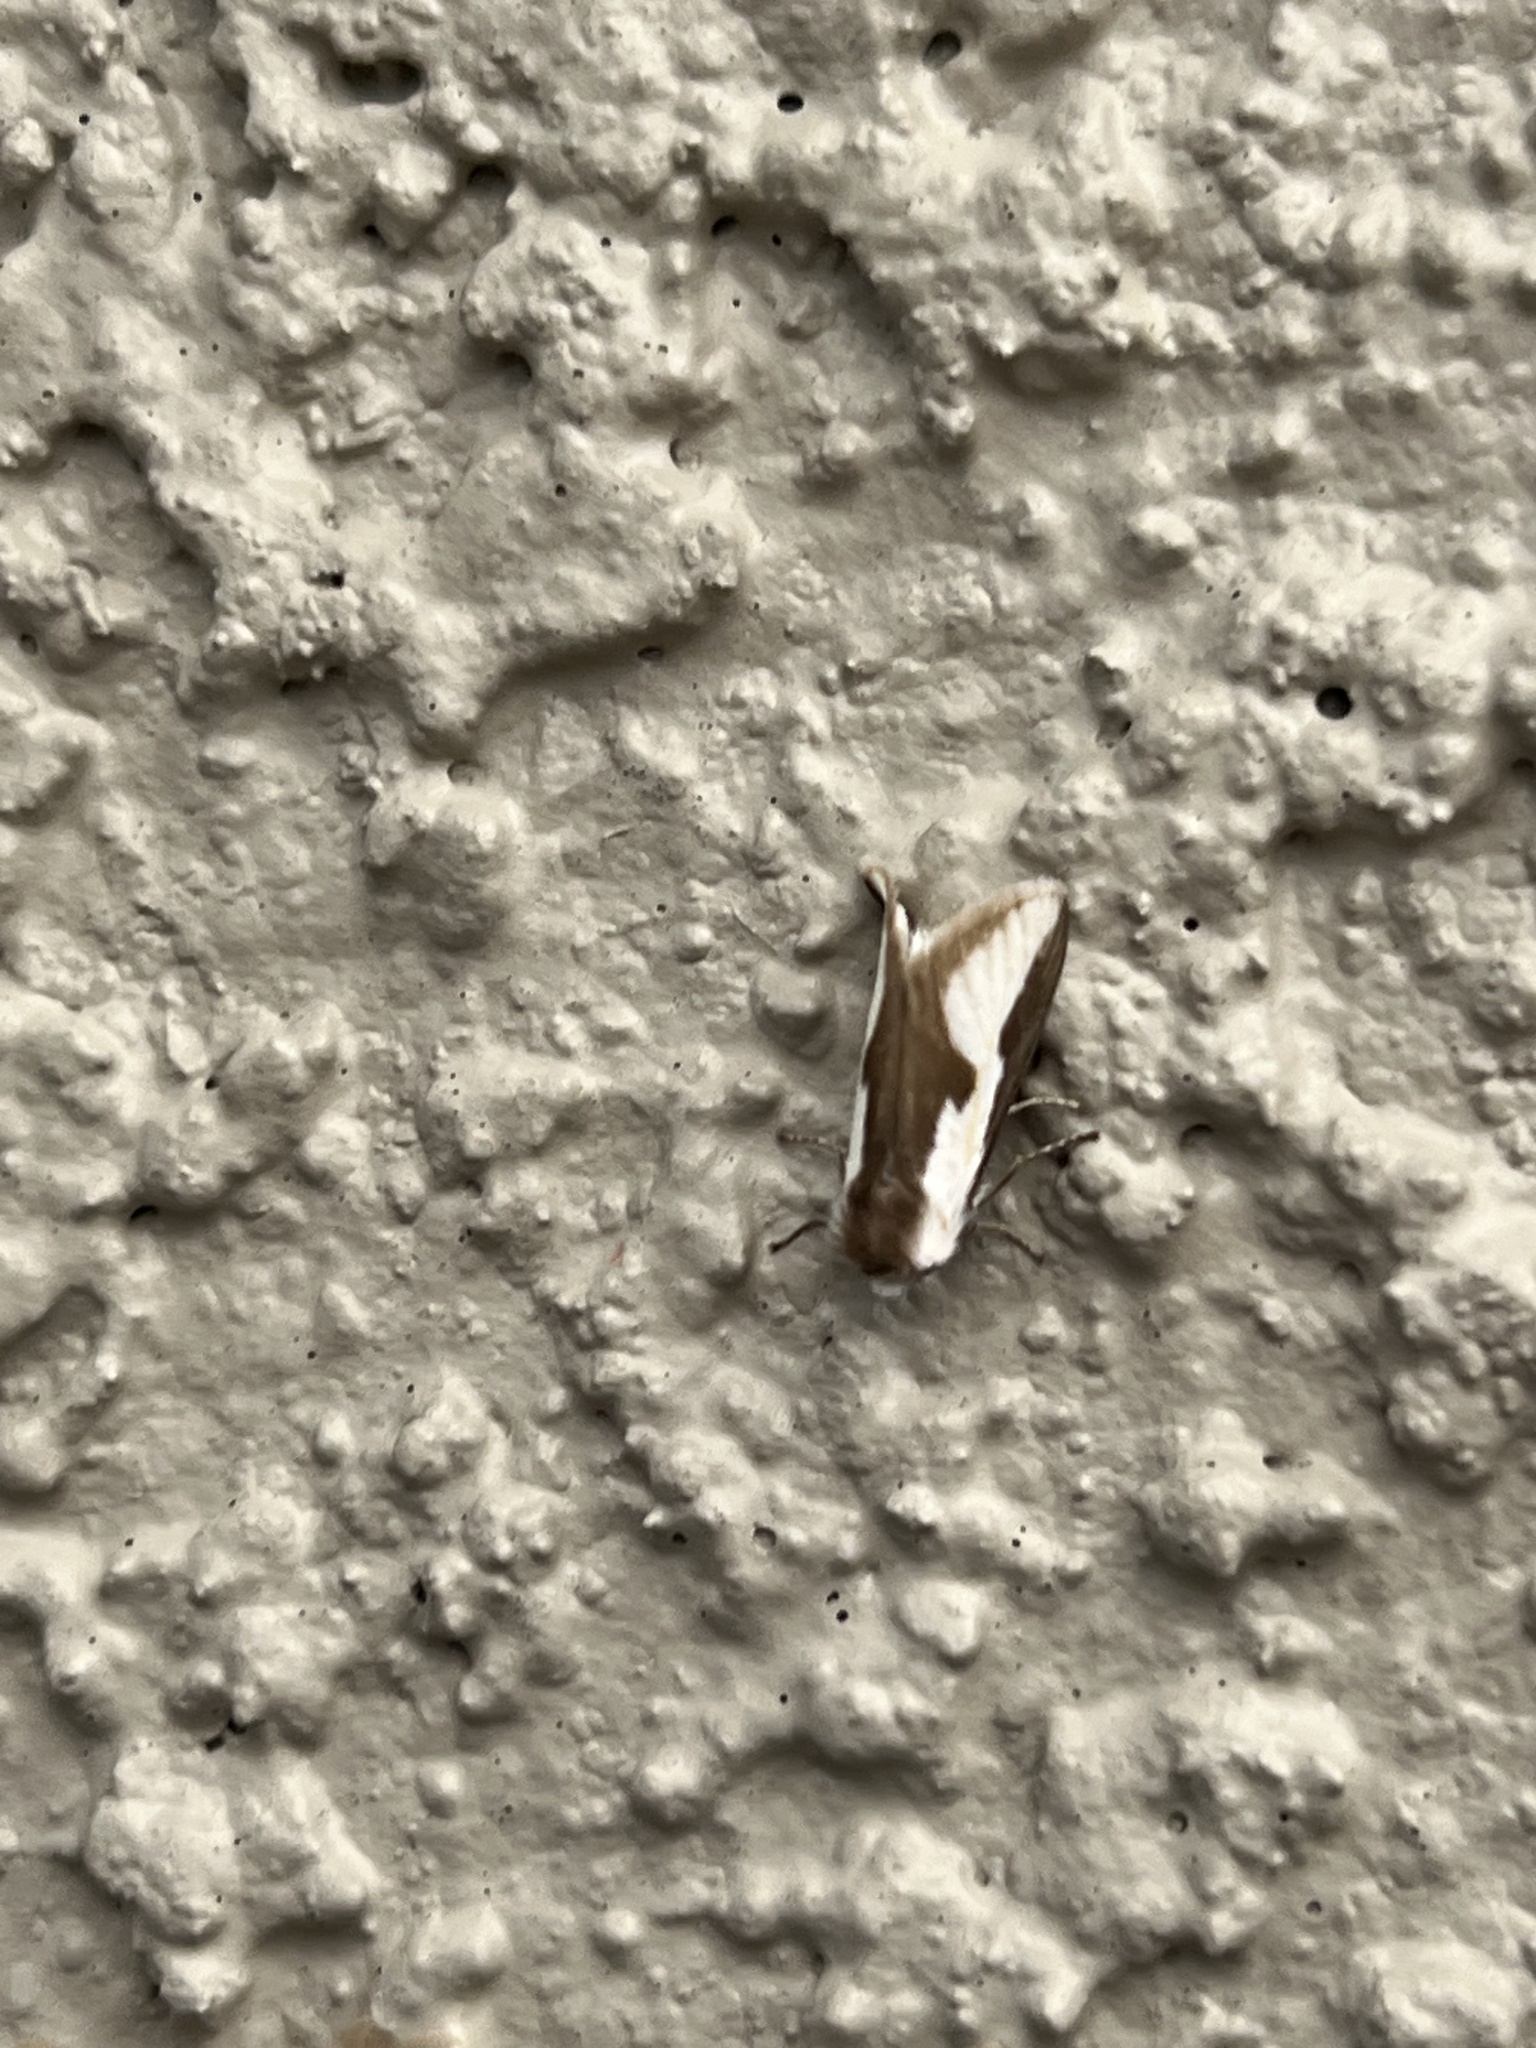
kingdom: Animalia
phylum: Arthropoda
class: Insecta
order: Lepidoptera
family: Megalopygidae
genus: Norape
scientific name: Norape tener
